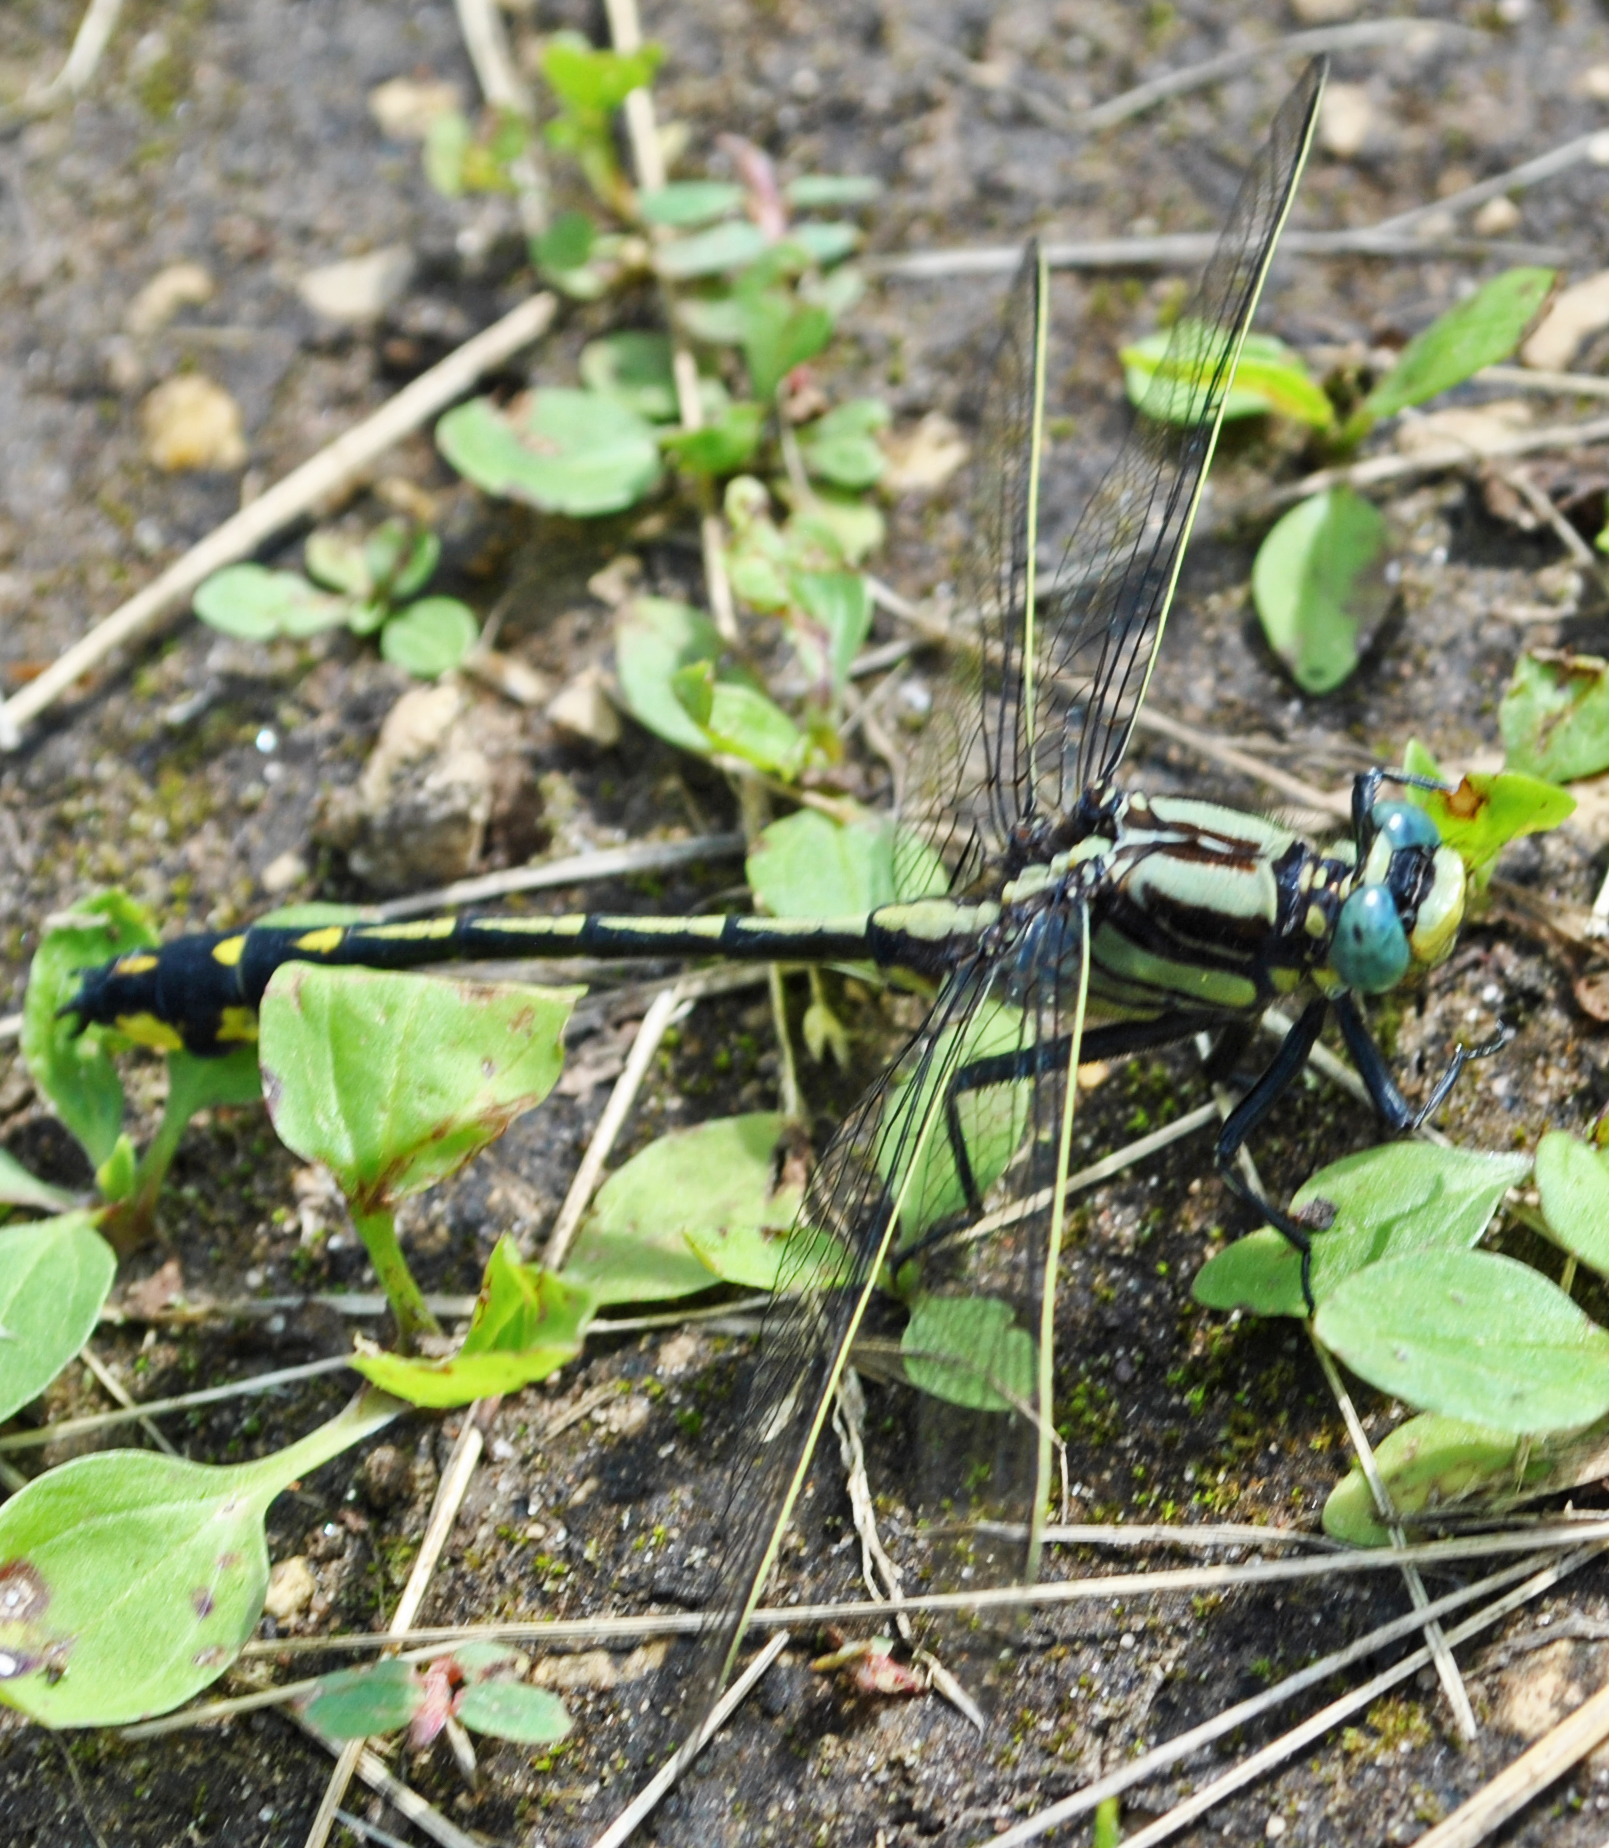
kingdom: Animalia
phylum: Arthropoda
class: Insecta
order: Odonata
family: Gomphidae
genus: Gomphurus
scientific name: Gomphurus externus
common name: Plains clubtail
